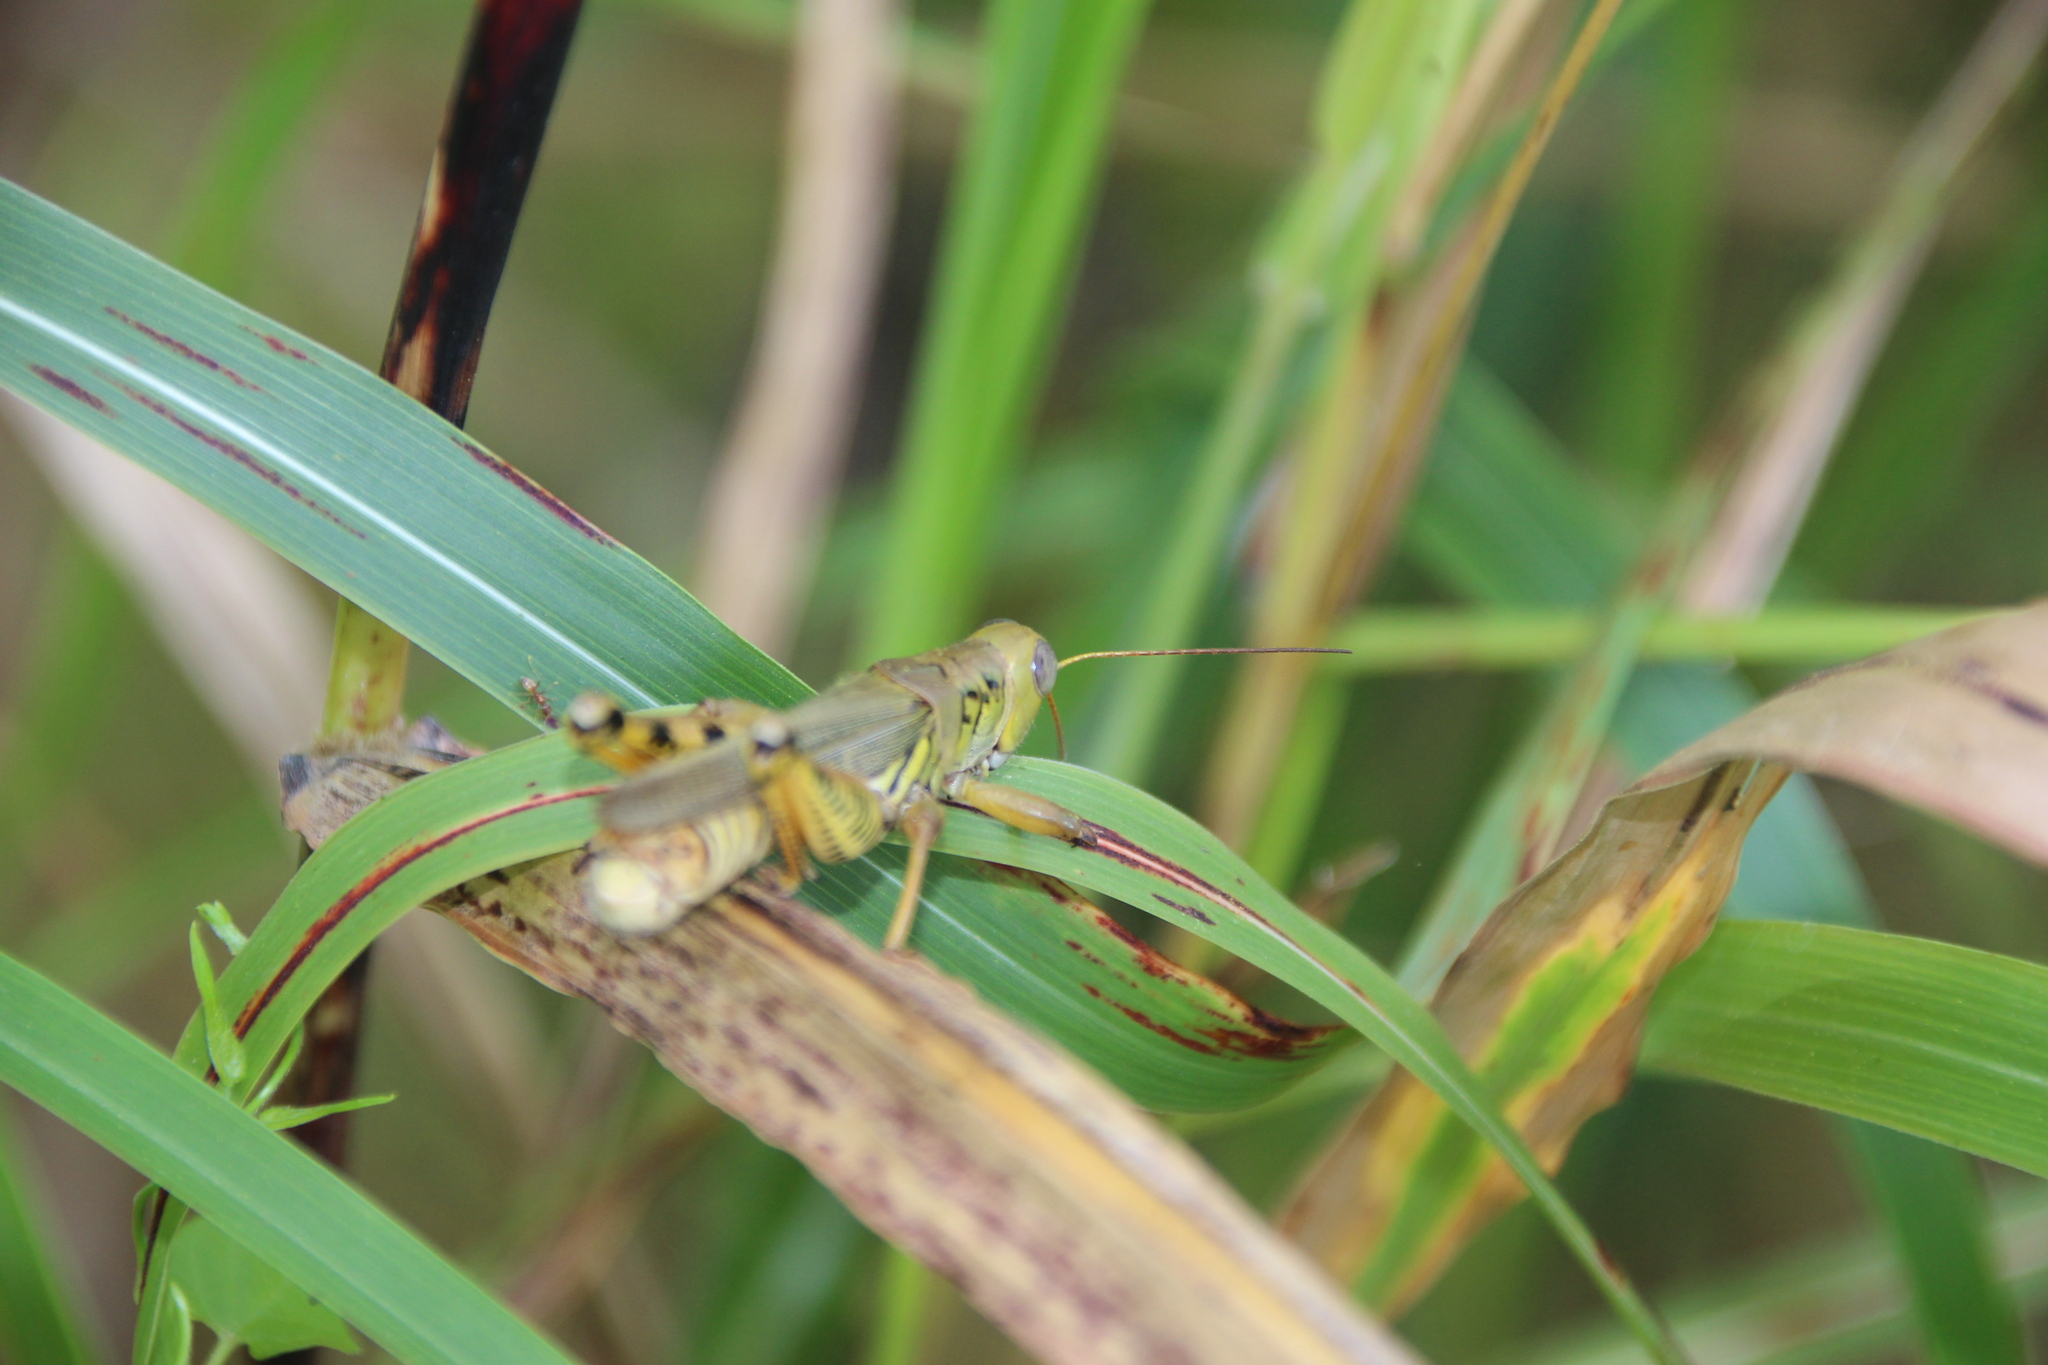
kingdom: Animalia
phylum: Arthropoda
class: Insecta
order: Orthoptera
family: Acrididae
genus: Melanoplus
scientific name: Melanoplus differentialis
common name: Differential grasshopper
